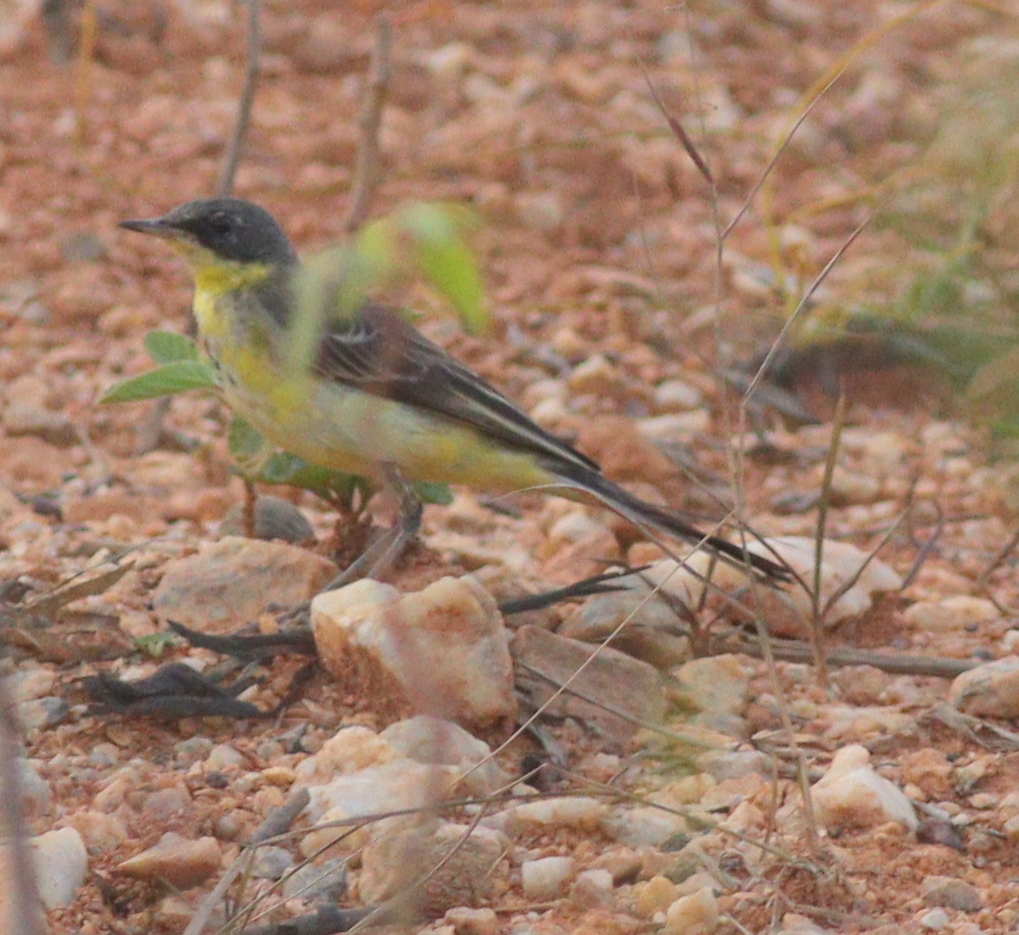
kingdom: Animalia
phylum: Chordata
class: Aves
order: Passeriformes
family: Motacillidae
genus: Motacilla
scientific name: Motacilla flava
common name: Western yellow wagtail
